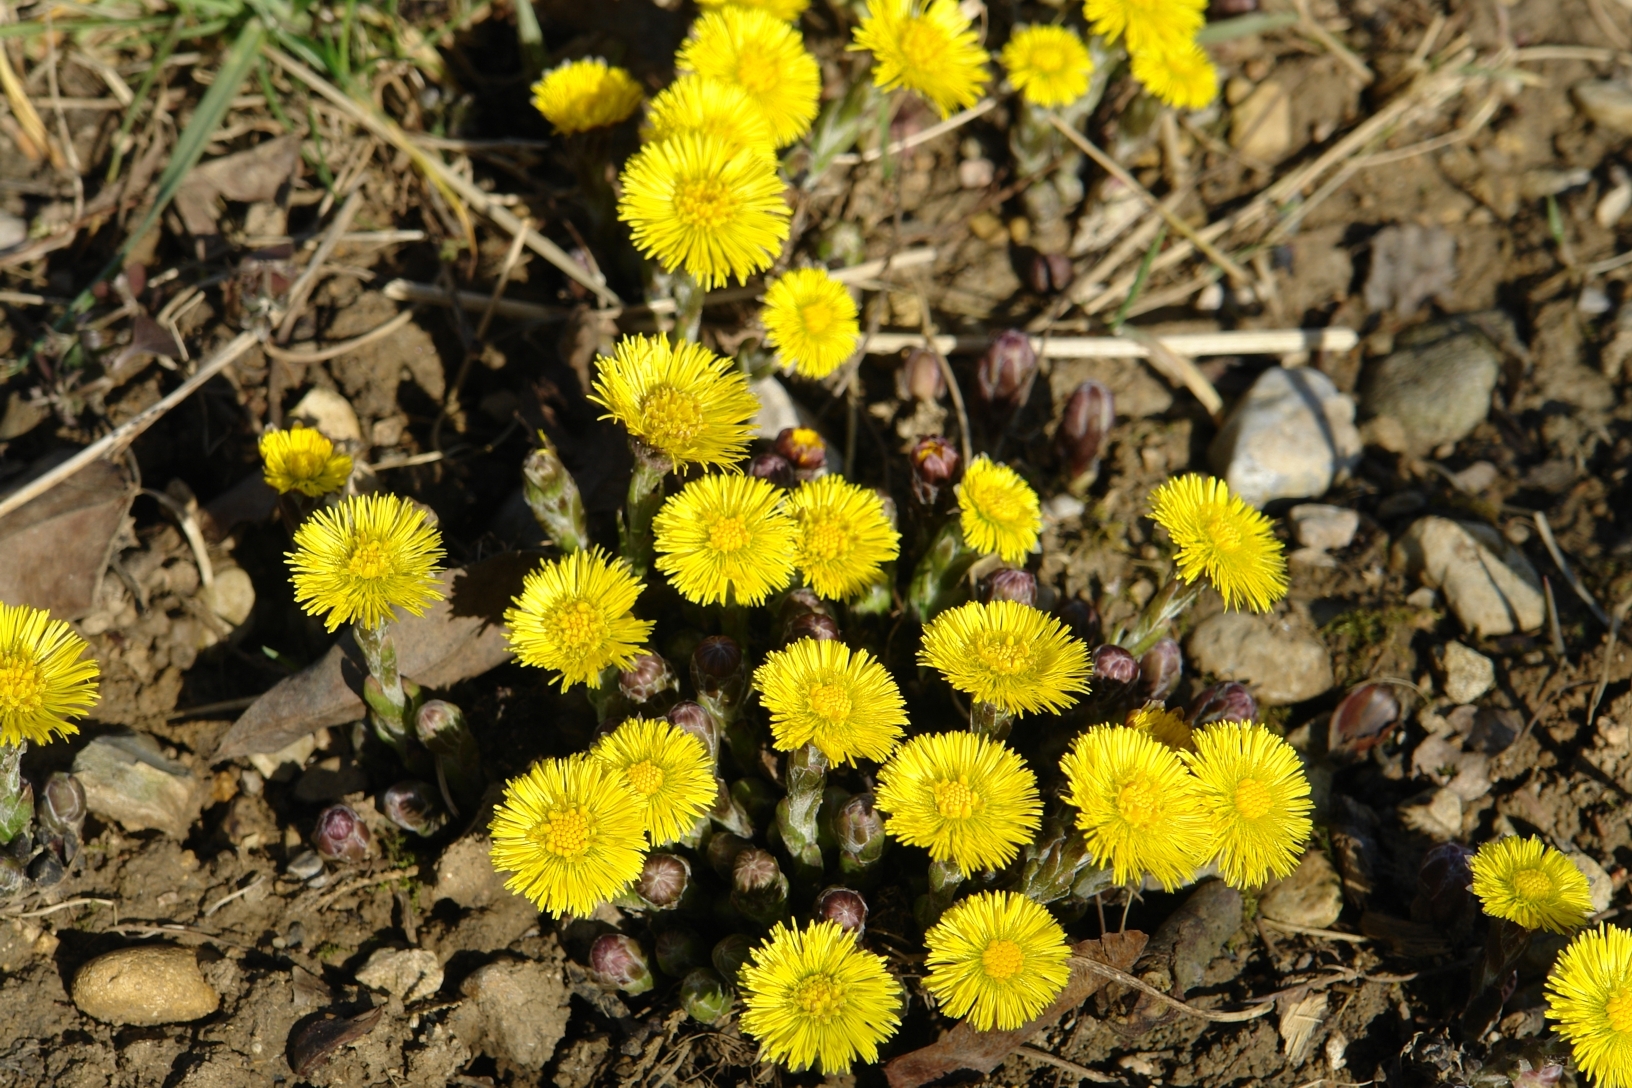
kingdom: Plantae
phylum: Tracheophyta
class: Magnoliopsida
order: Asterales
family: Asteraceae
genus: Tussilago
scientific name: Tussilago farfara
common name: Coltsfoot
